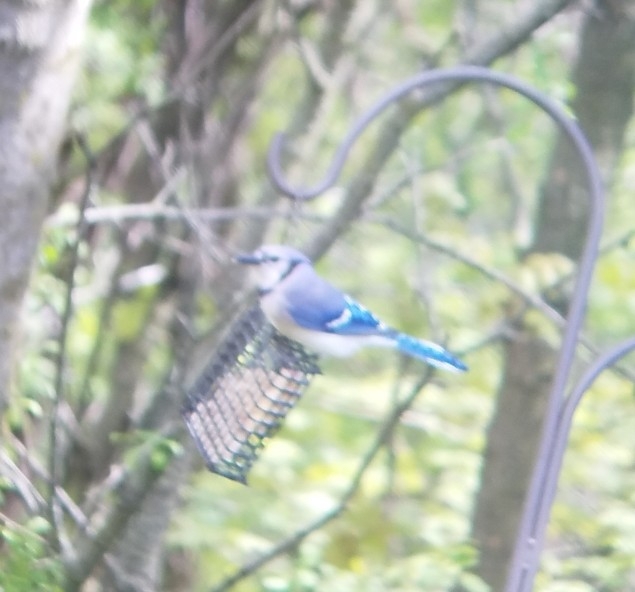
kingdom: Animalia
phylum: Chordata
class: Aves
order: Passeriformes
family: Corvidae
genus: Cyanocitta
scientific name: Cyanocitta cristata
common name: Blue jay
